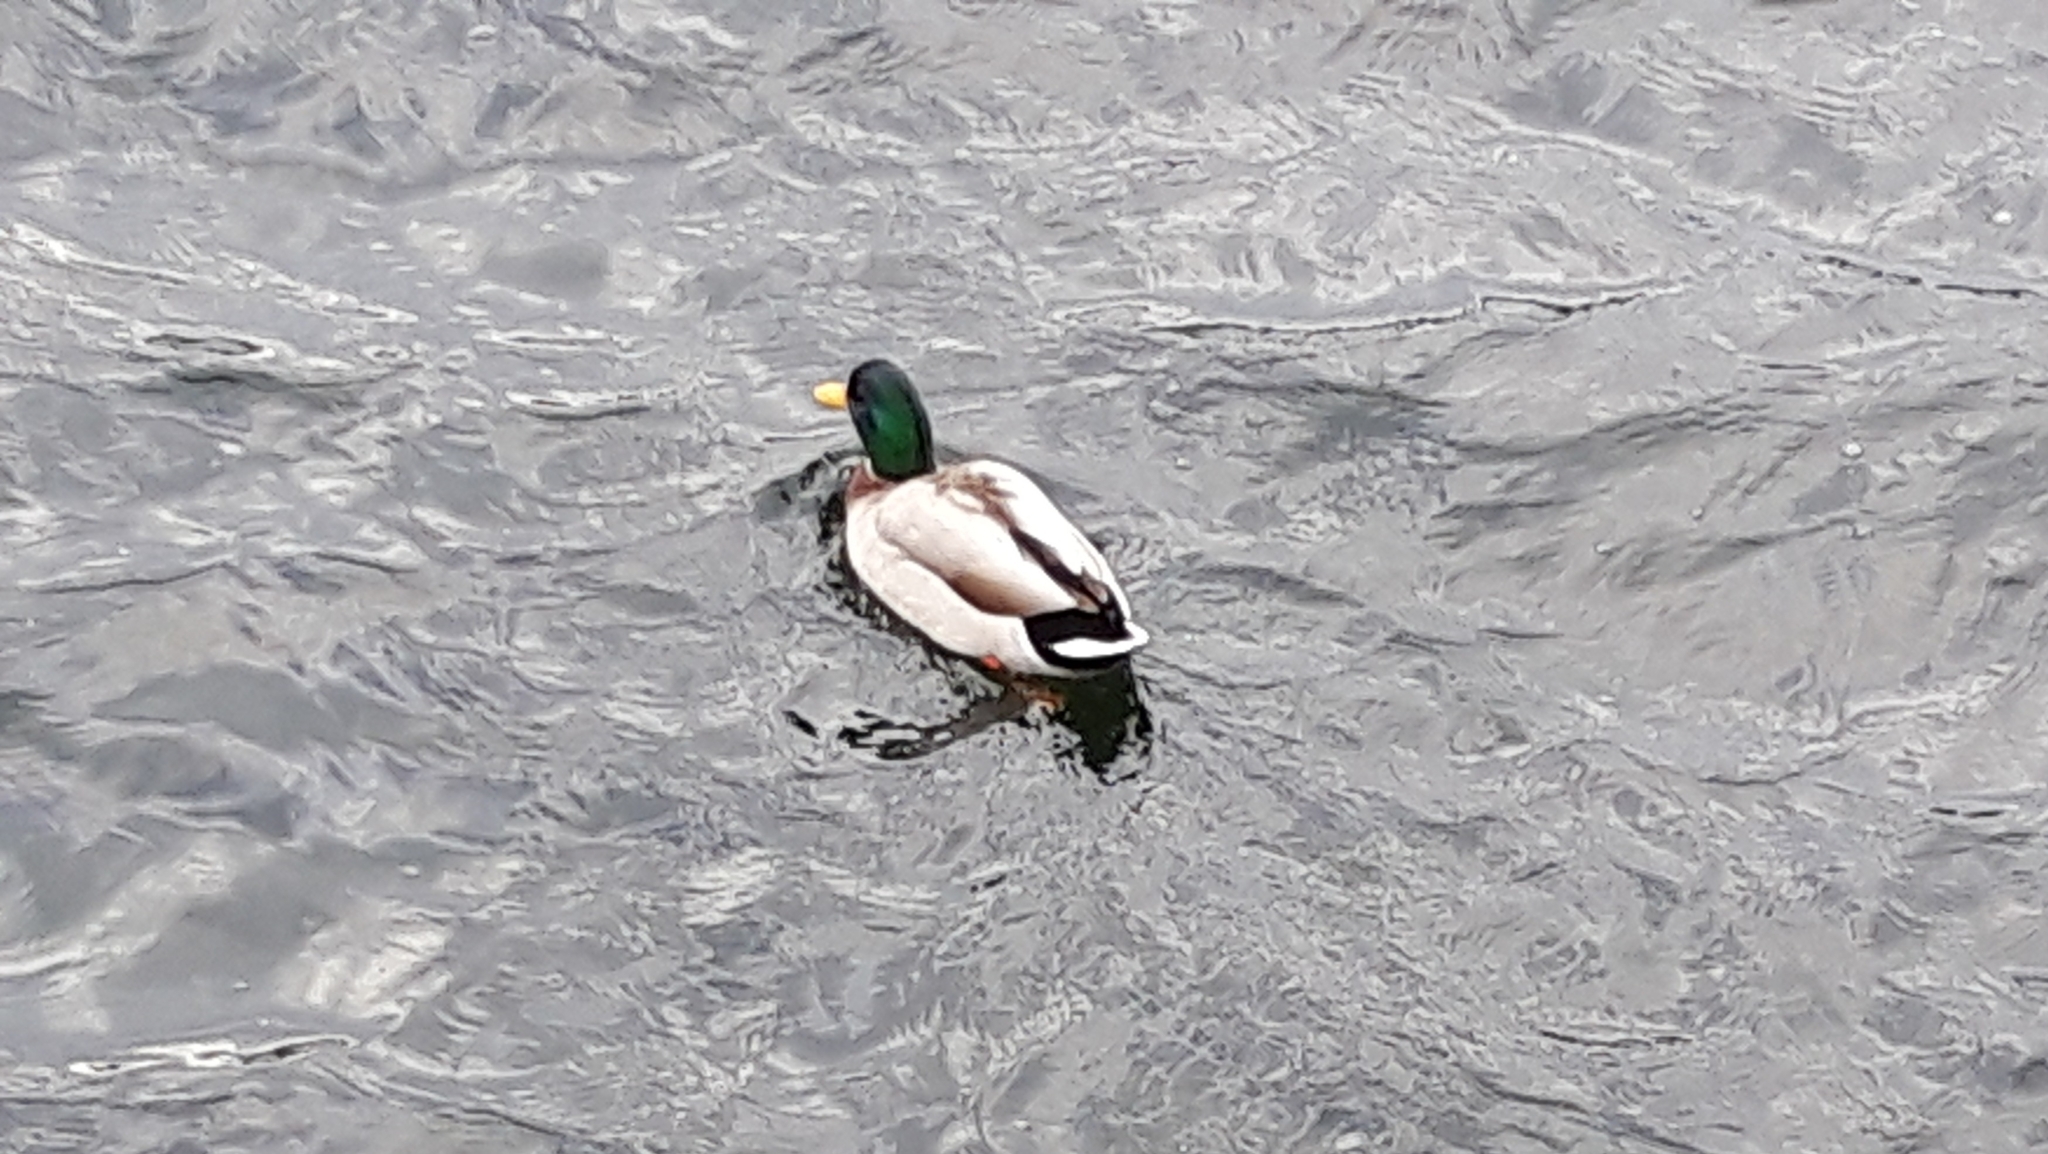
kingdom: Animalia
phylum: Chordata
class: Aves
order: Anseriformes
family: Anatidae
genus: Anas
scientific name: Anas platyrhynchos
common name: Mallard
